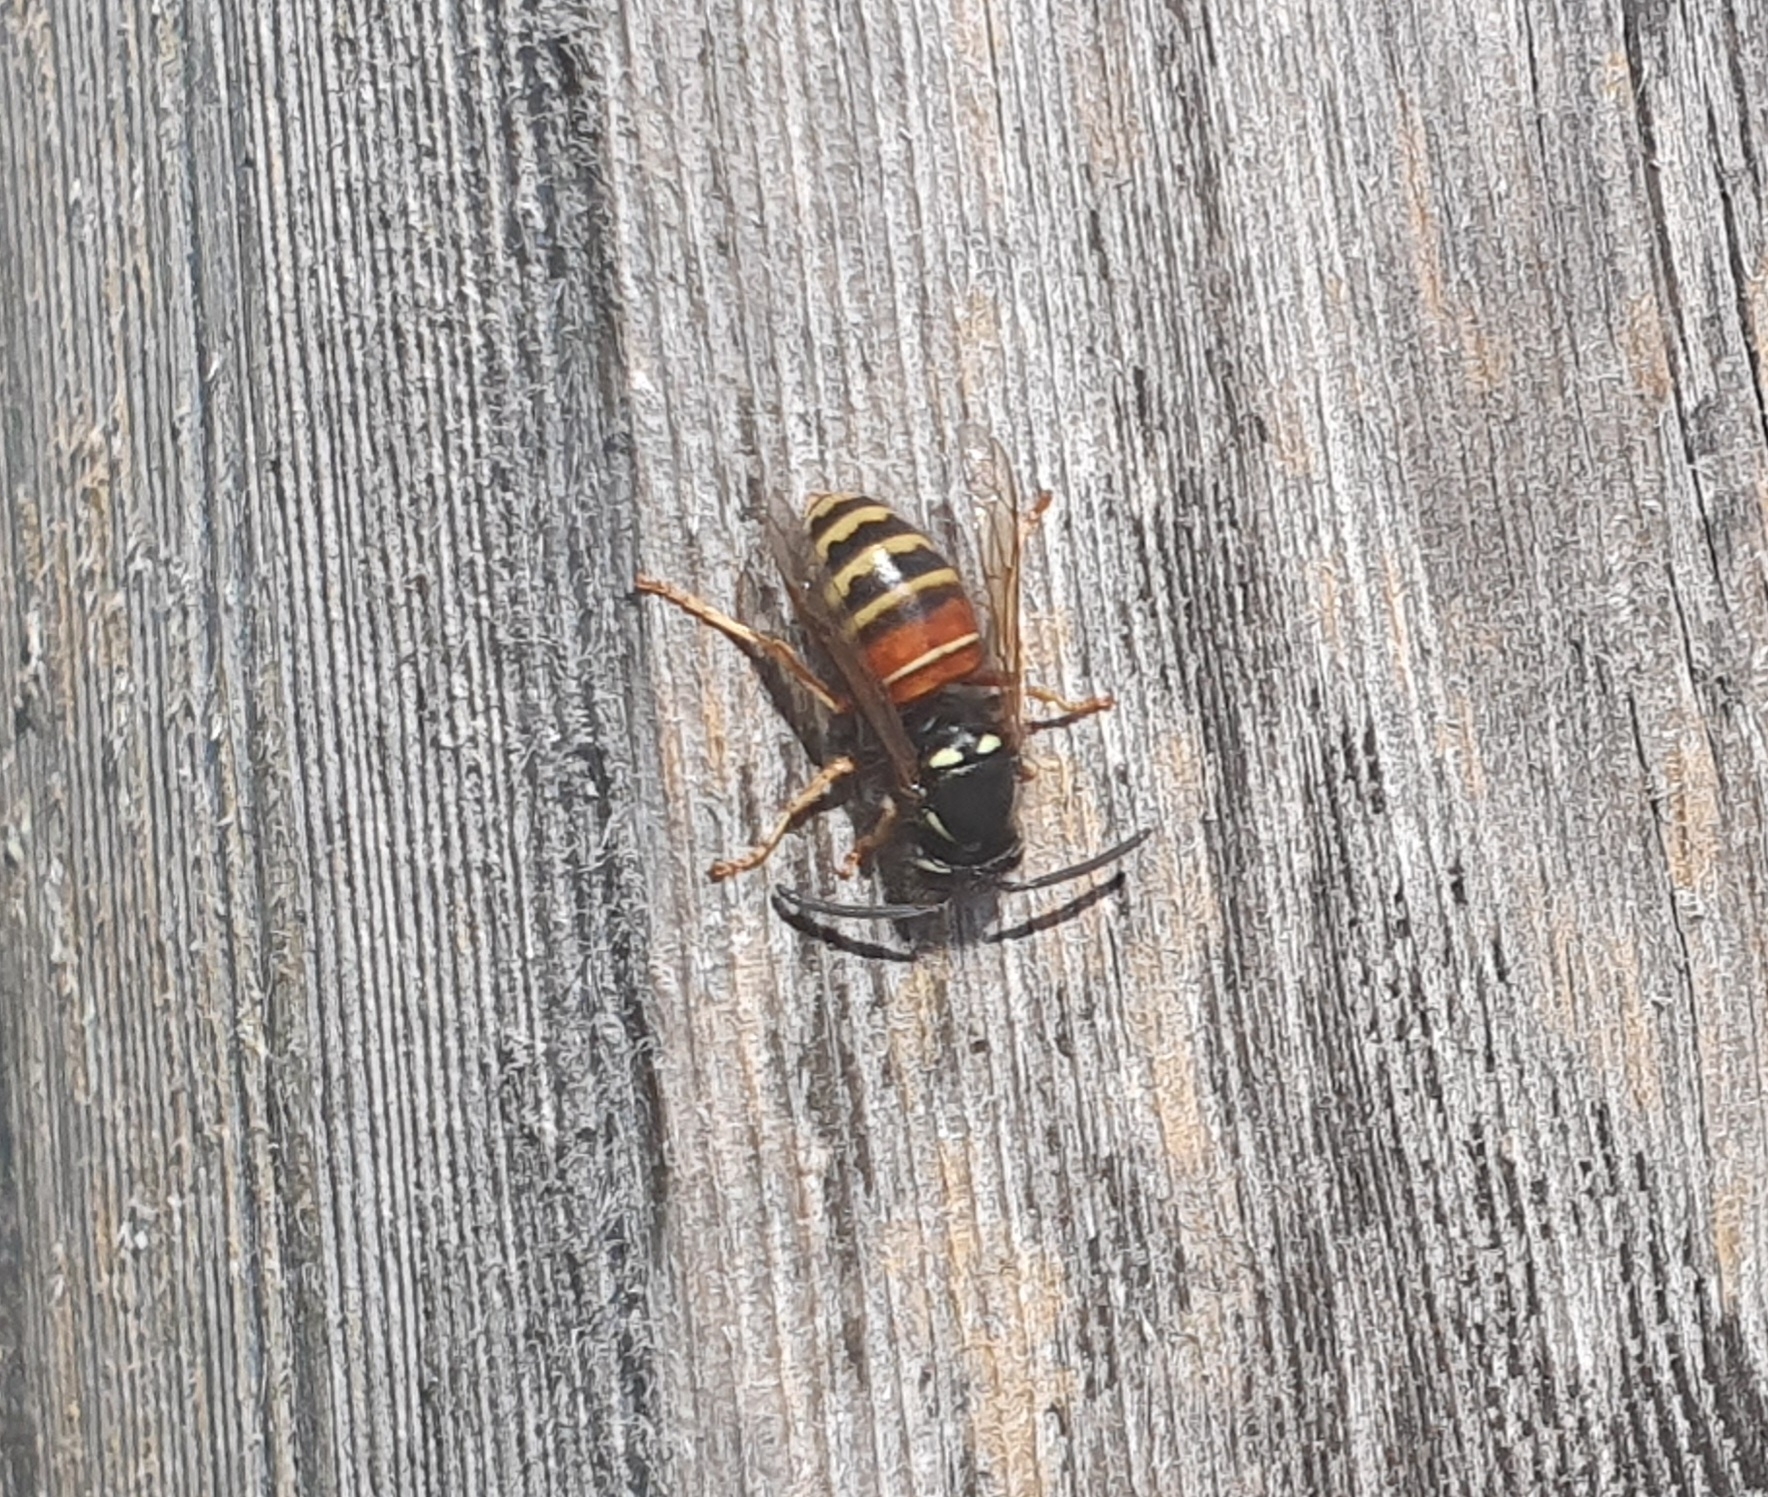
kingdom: Animalia
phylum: Arthropoda
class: Insecta
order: Hymenoptera
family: Vespidae
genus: Vespula
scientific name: Vespula rufa
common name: Red wasp
